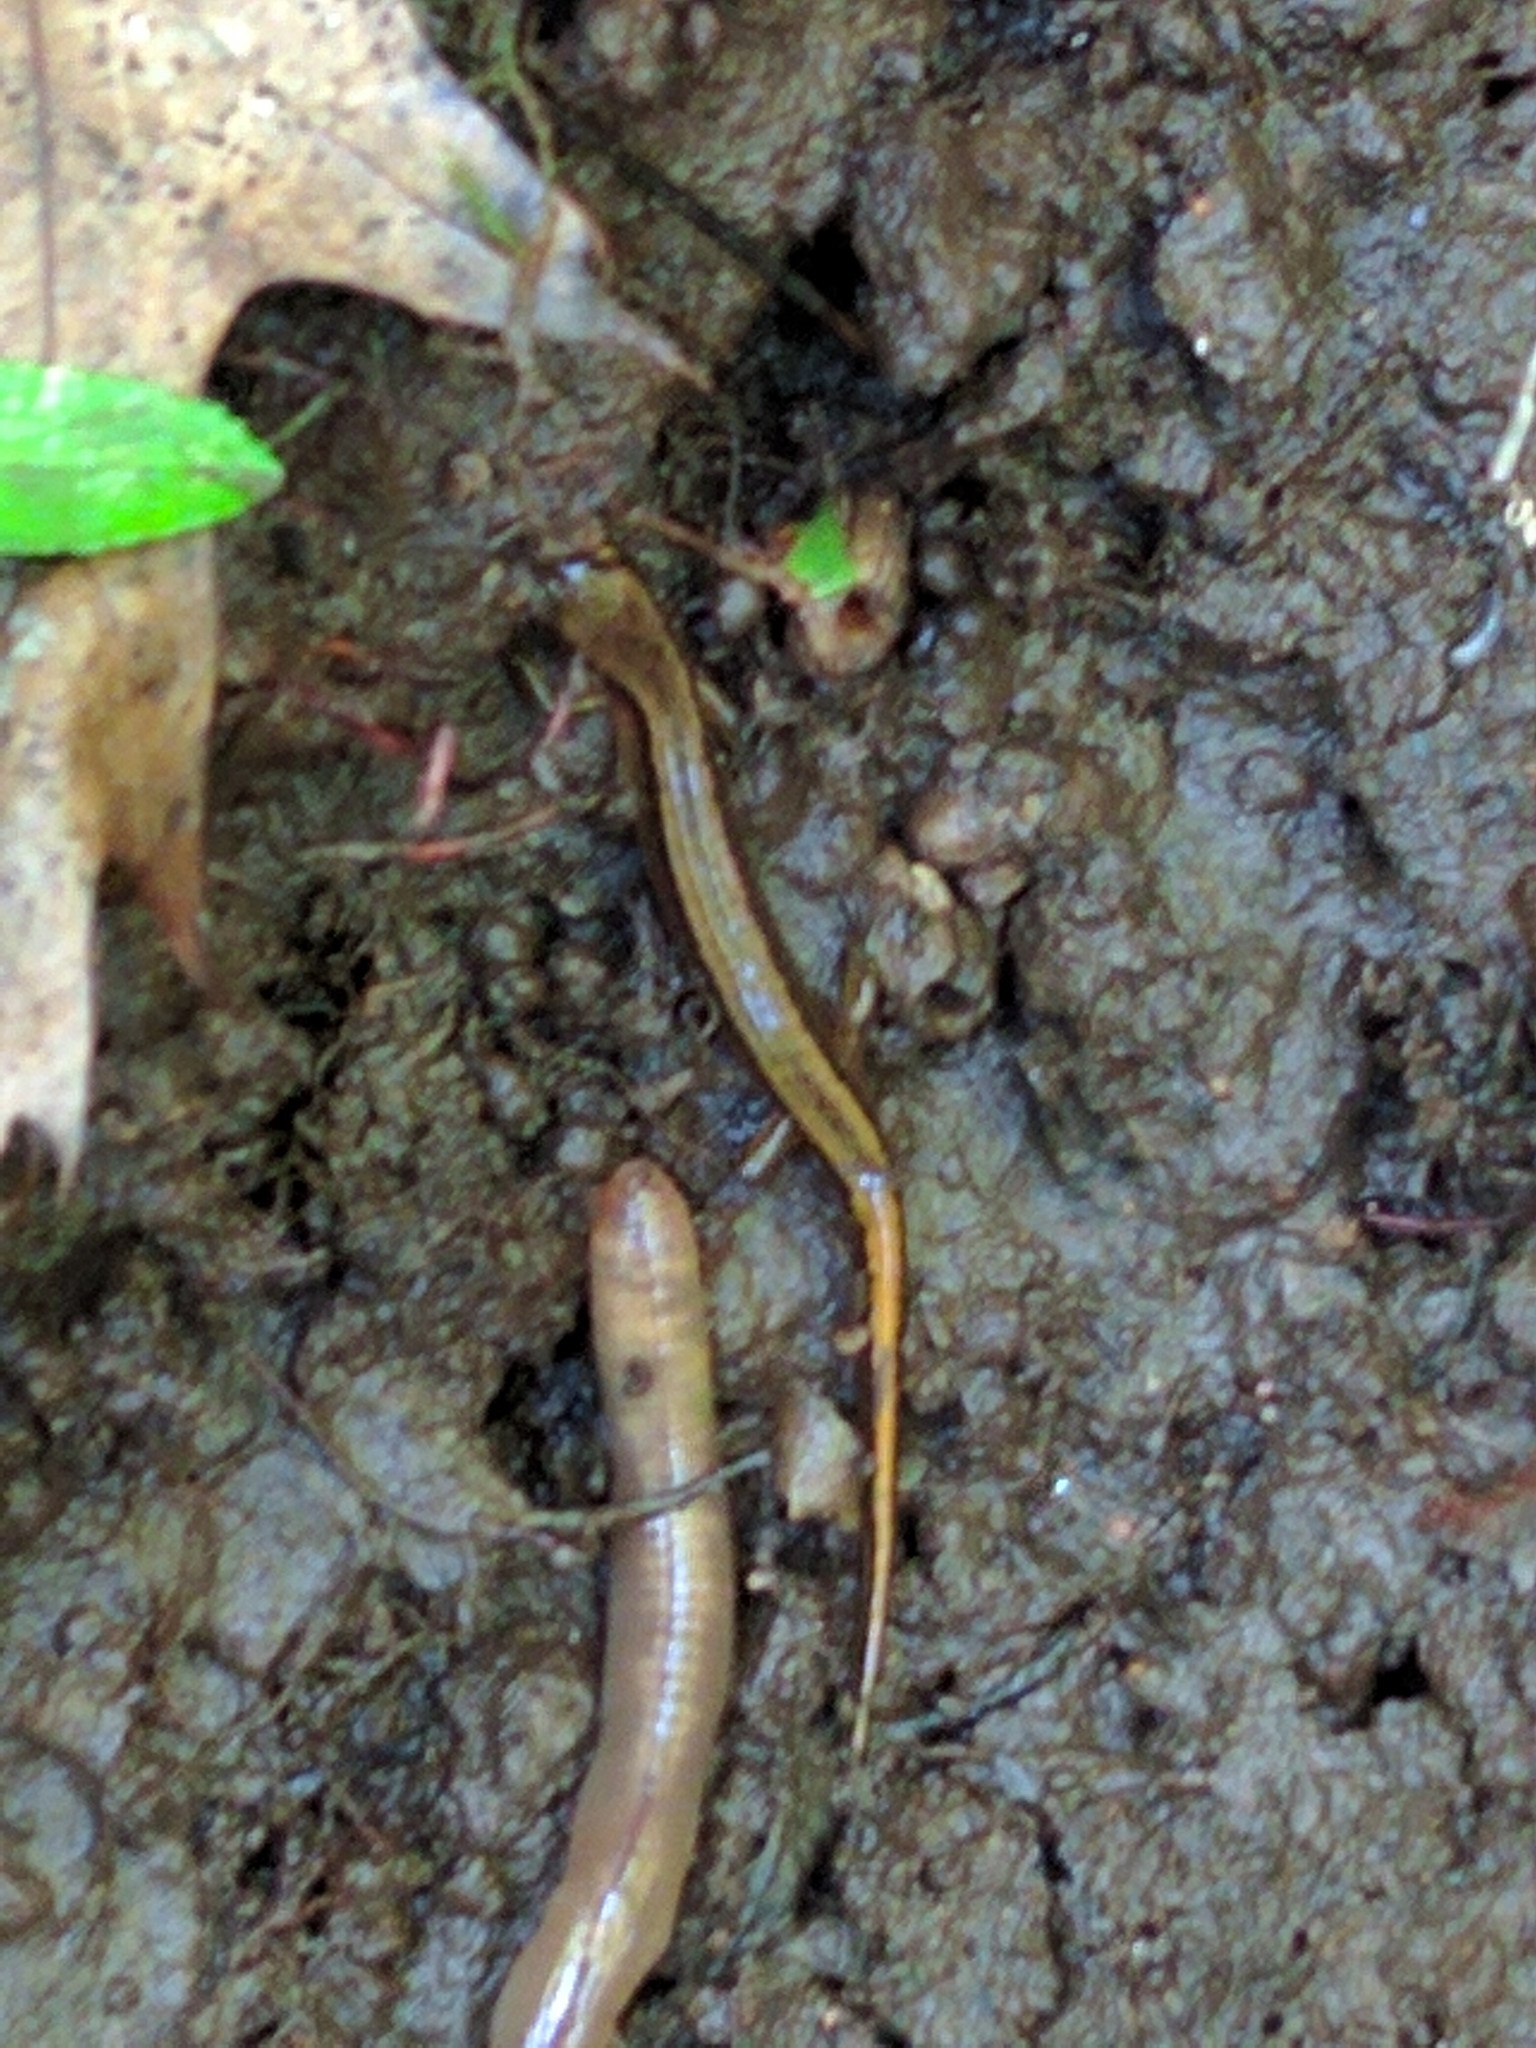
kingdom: Animalia
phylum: Chordata
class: Amphibia
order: Caudata
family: Plethodontidae
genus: Eurycea
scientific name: Eurycea bislineata
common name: Northern two-lined salamander
